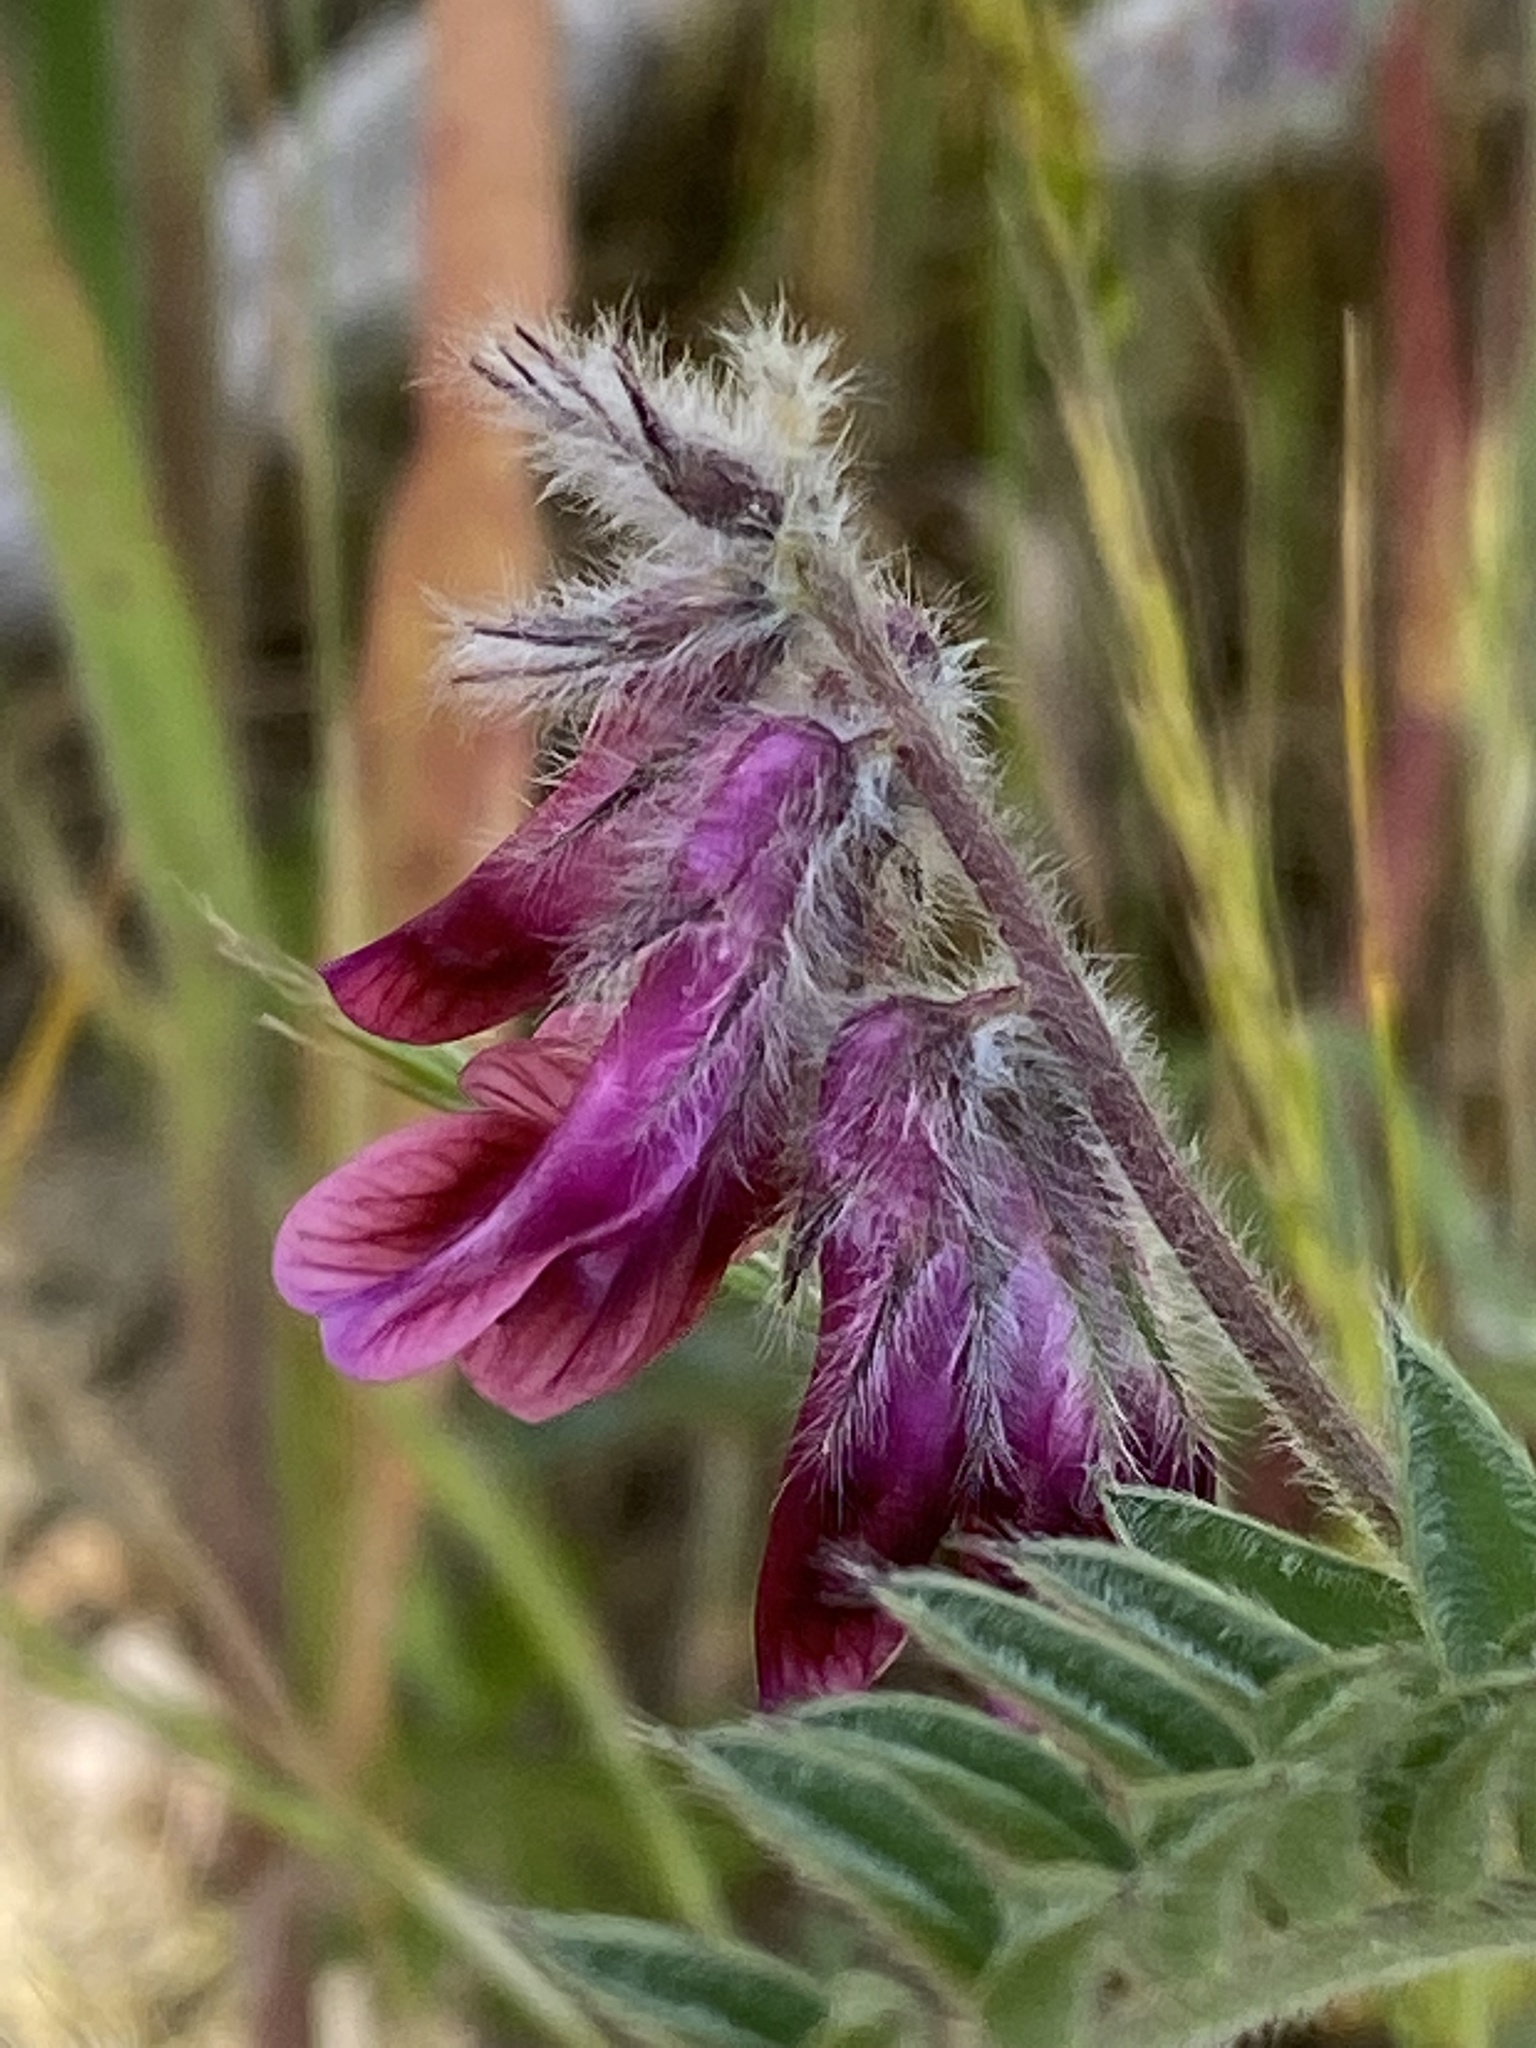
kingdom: Plantae
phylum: Tracheophyta
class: Magnoliopsida
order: Fabales
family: Fabaceae
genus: Vicia
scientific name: Vicia benghalensis
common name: Purple vetch
